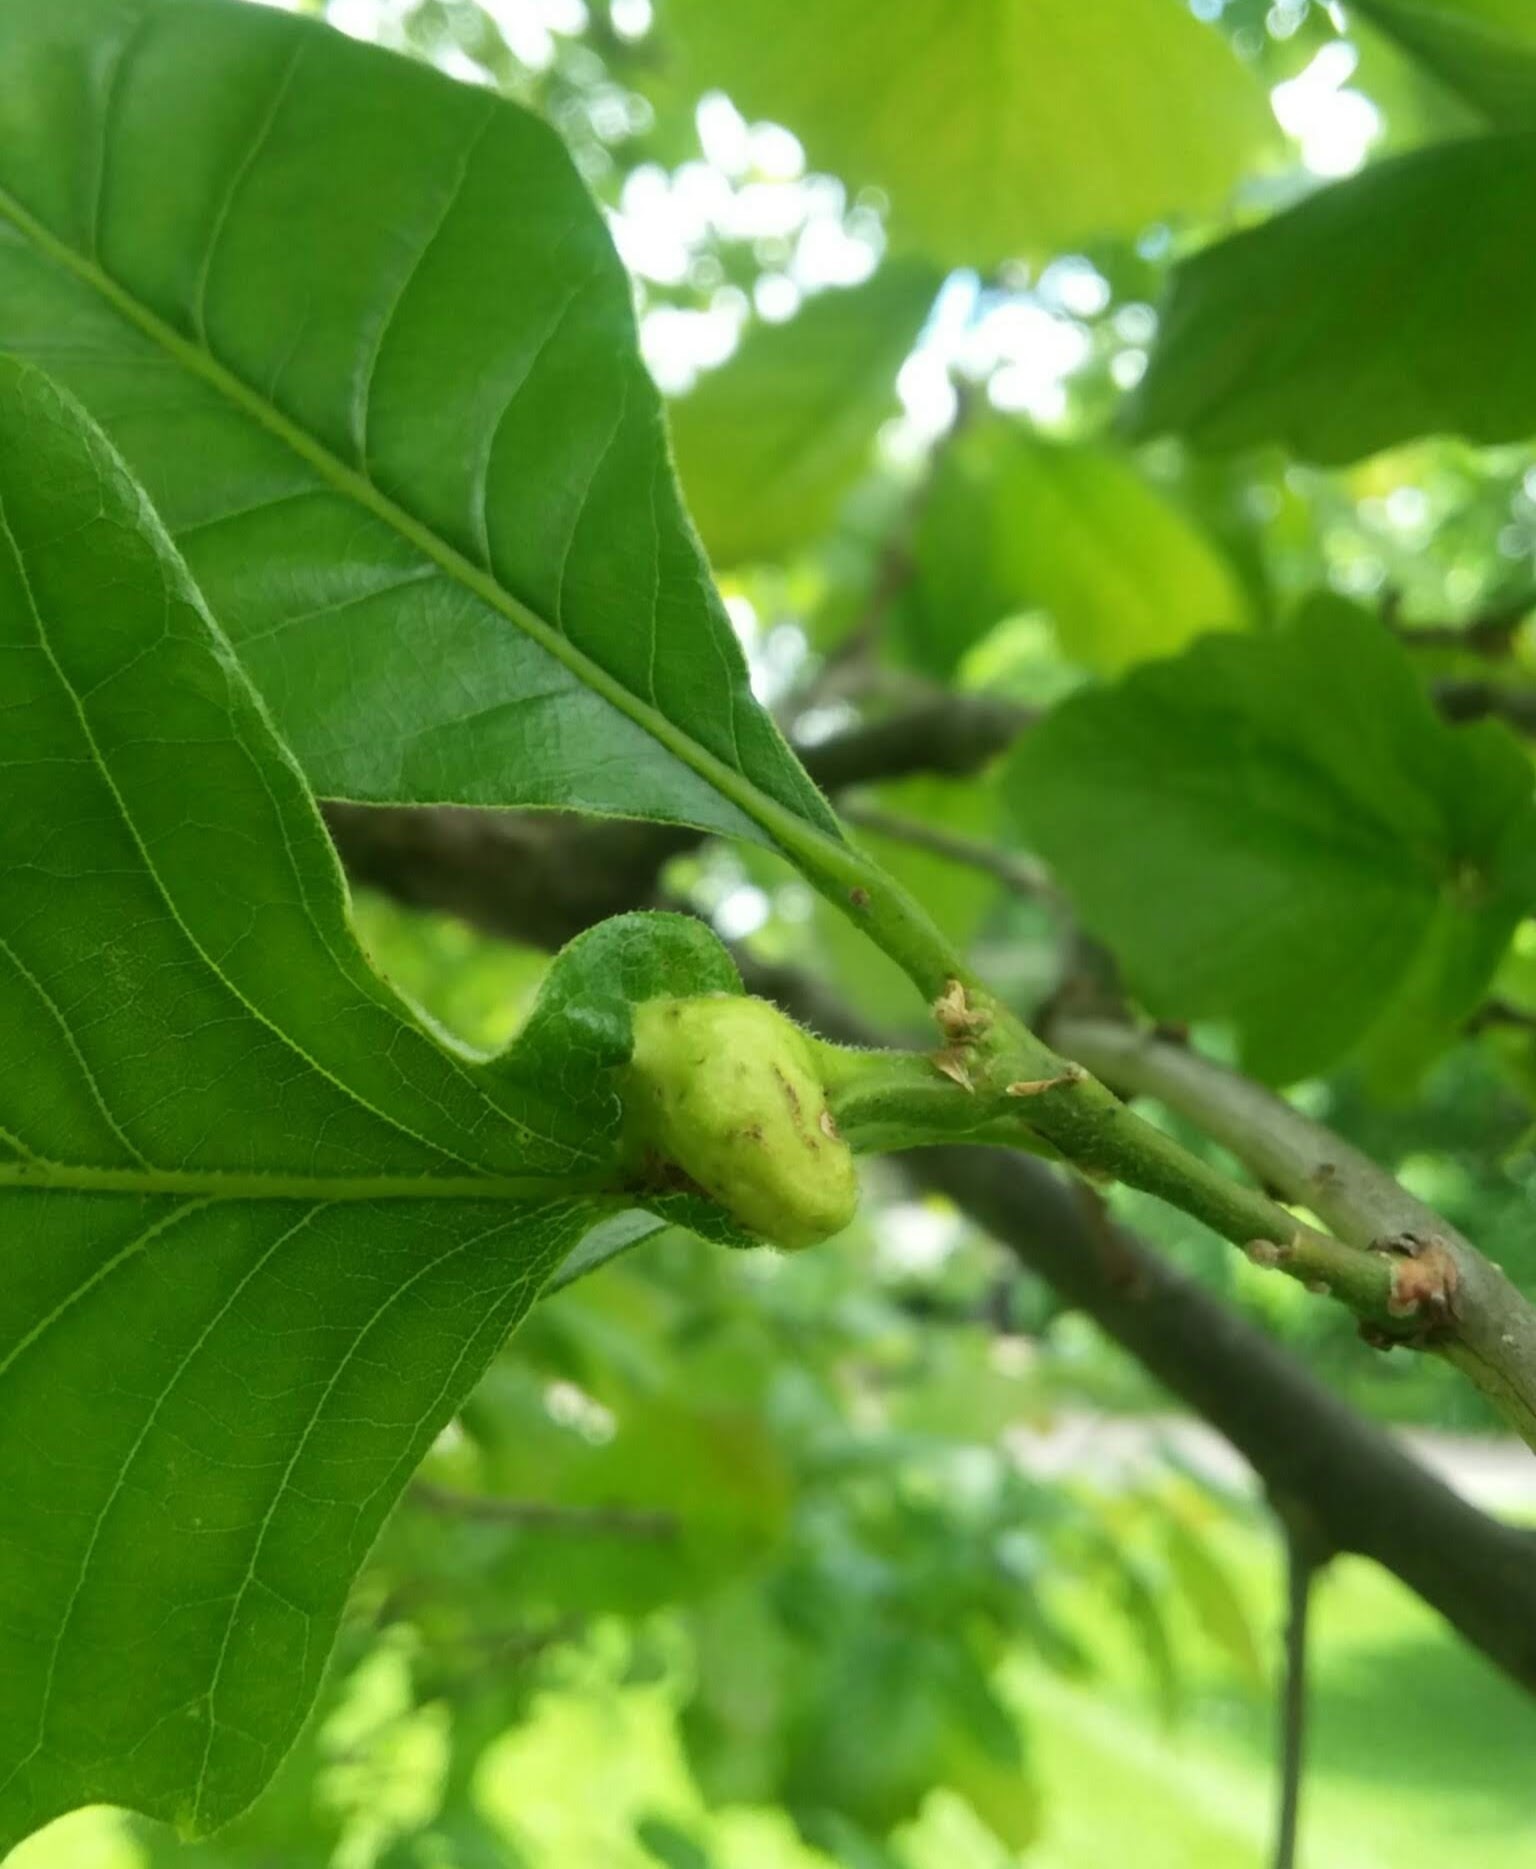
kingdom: Animalia
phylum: Arthropoda
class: Insecta
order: Hymenoptera
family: Cynipidae
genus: Andricus
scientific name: Andricus
